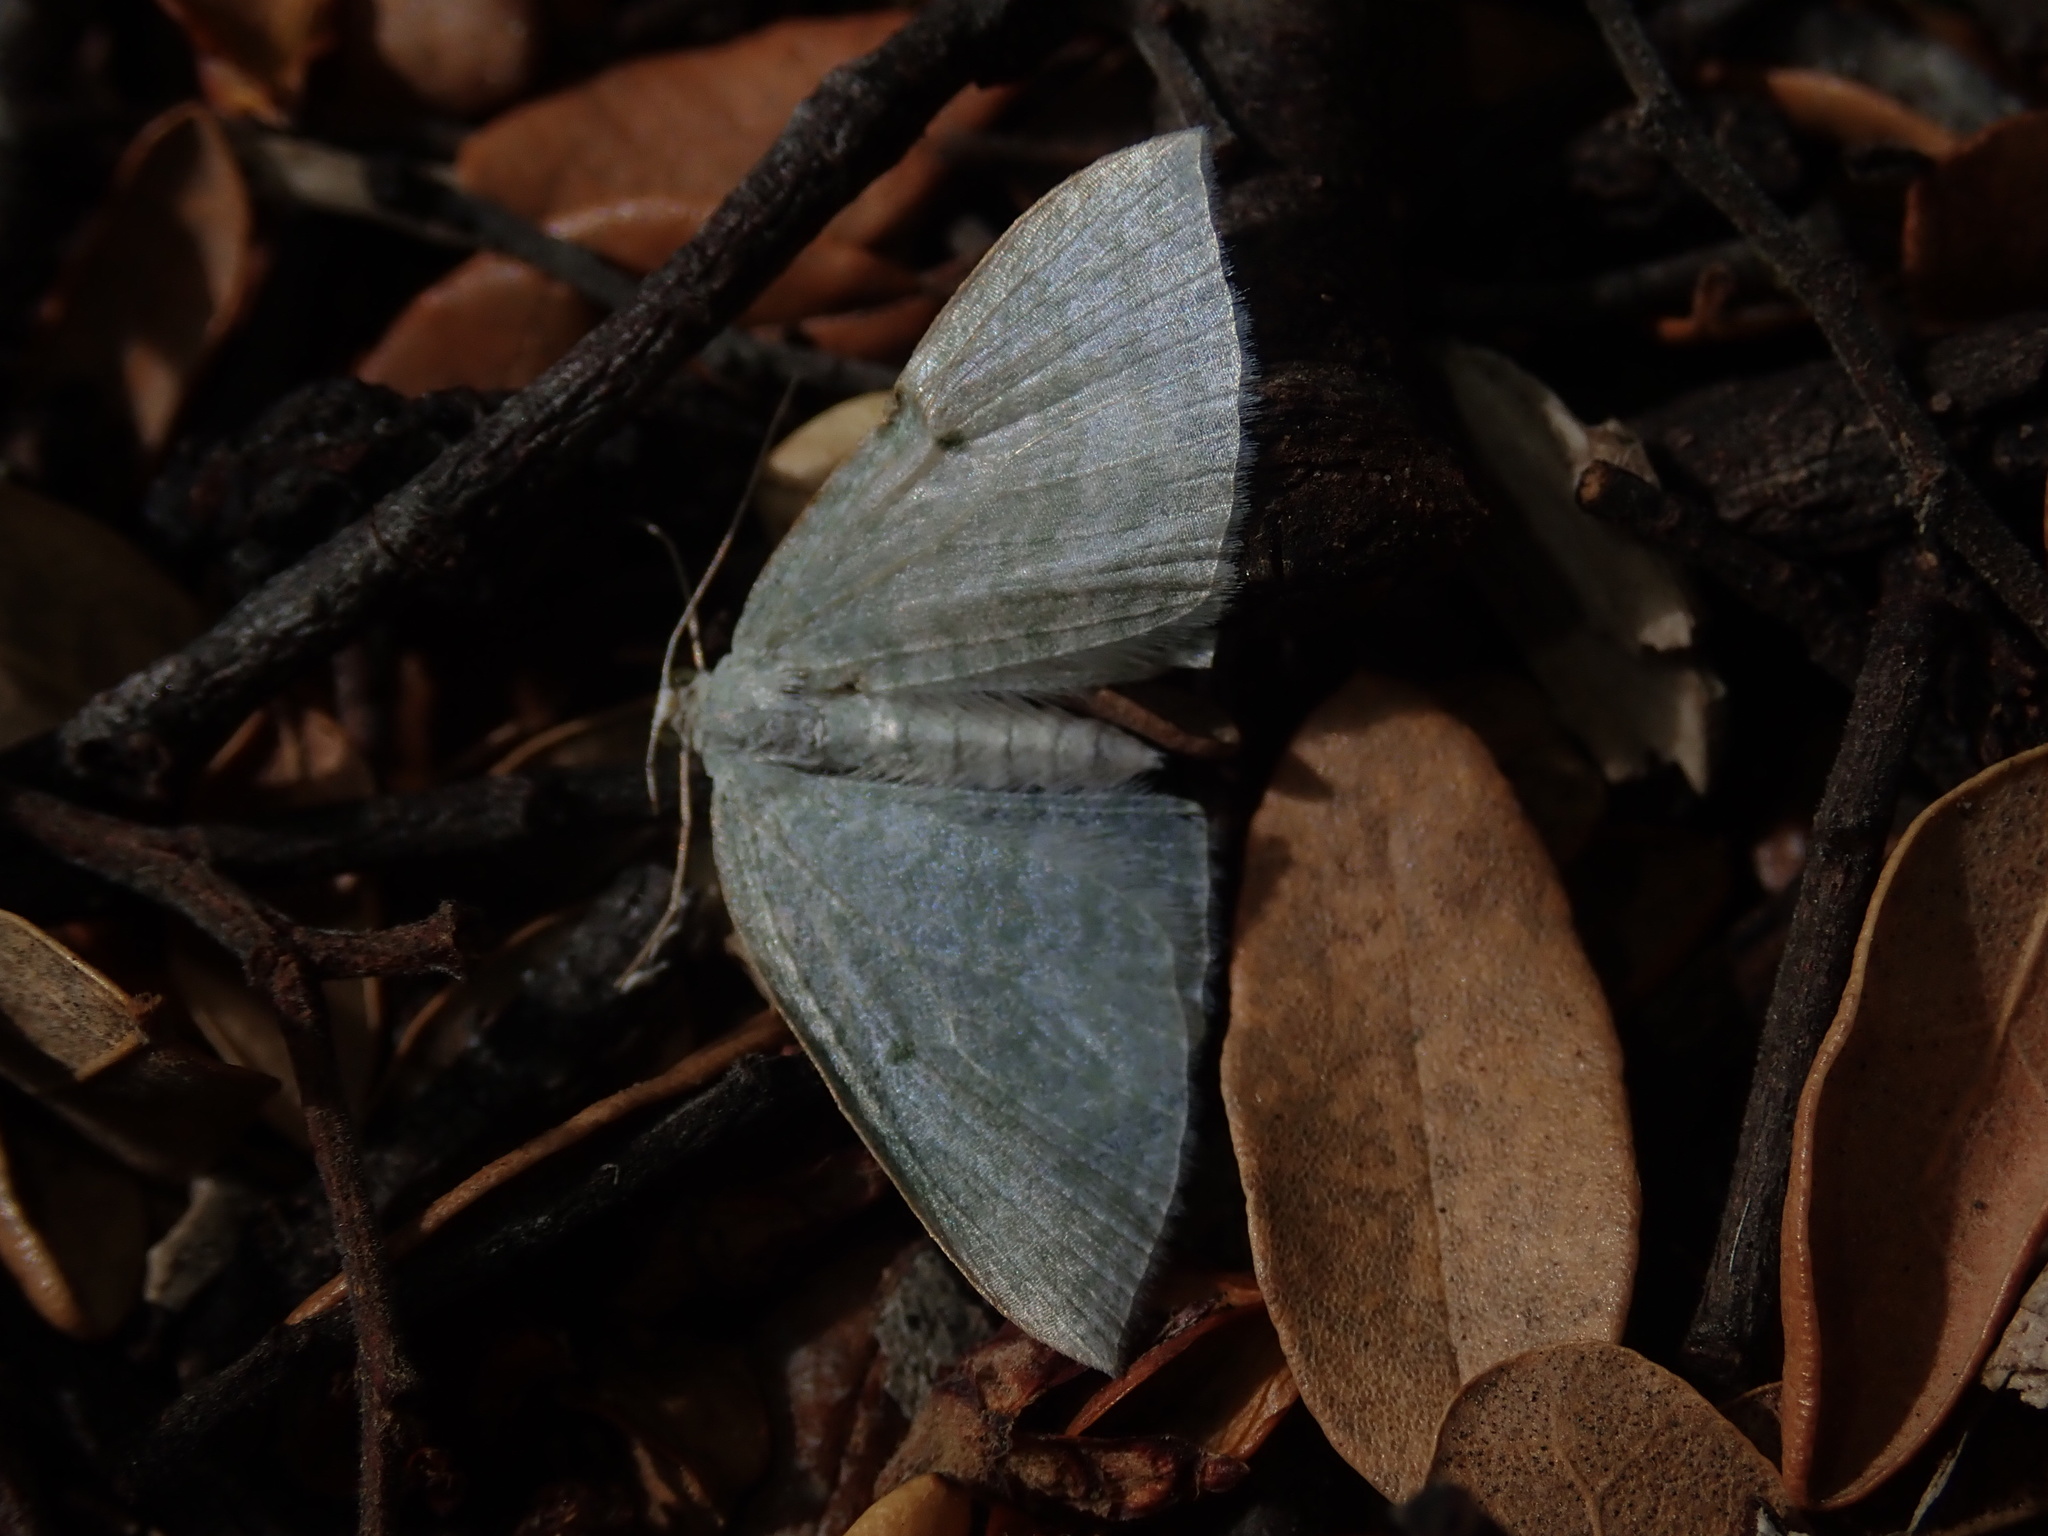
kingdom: Animalia
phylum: Arthropoda
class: Insecta
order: Lepidoptera
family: Geometridae
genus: Poecilasthena
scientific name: Poecilasthena pulchraria
